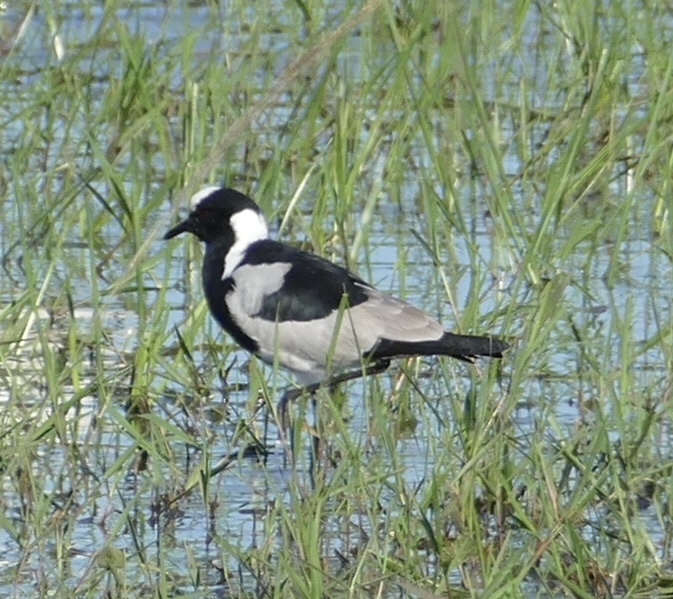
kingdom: Animalia
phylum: Chordata
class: Aves
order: Charadriiformes
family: Charadriidae
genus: Vanellus
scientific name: Vanellus armatus
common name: Blacksmith lapwing
